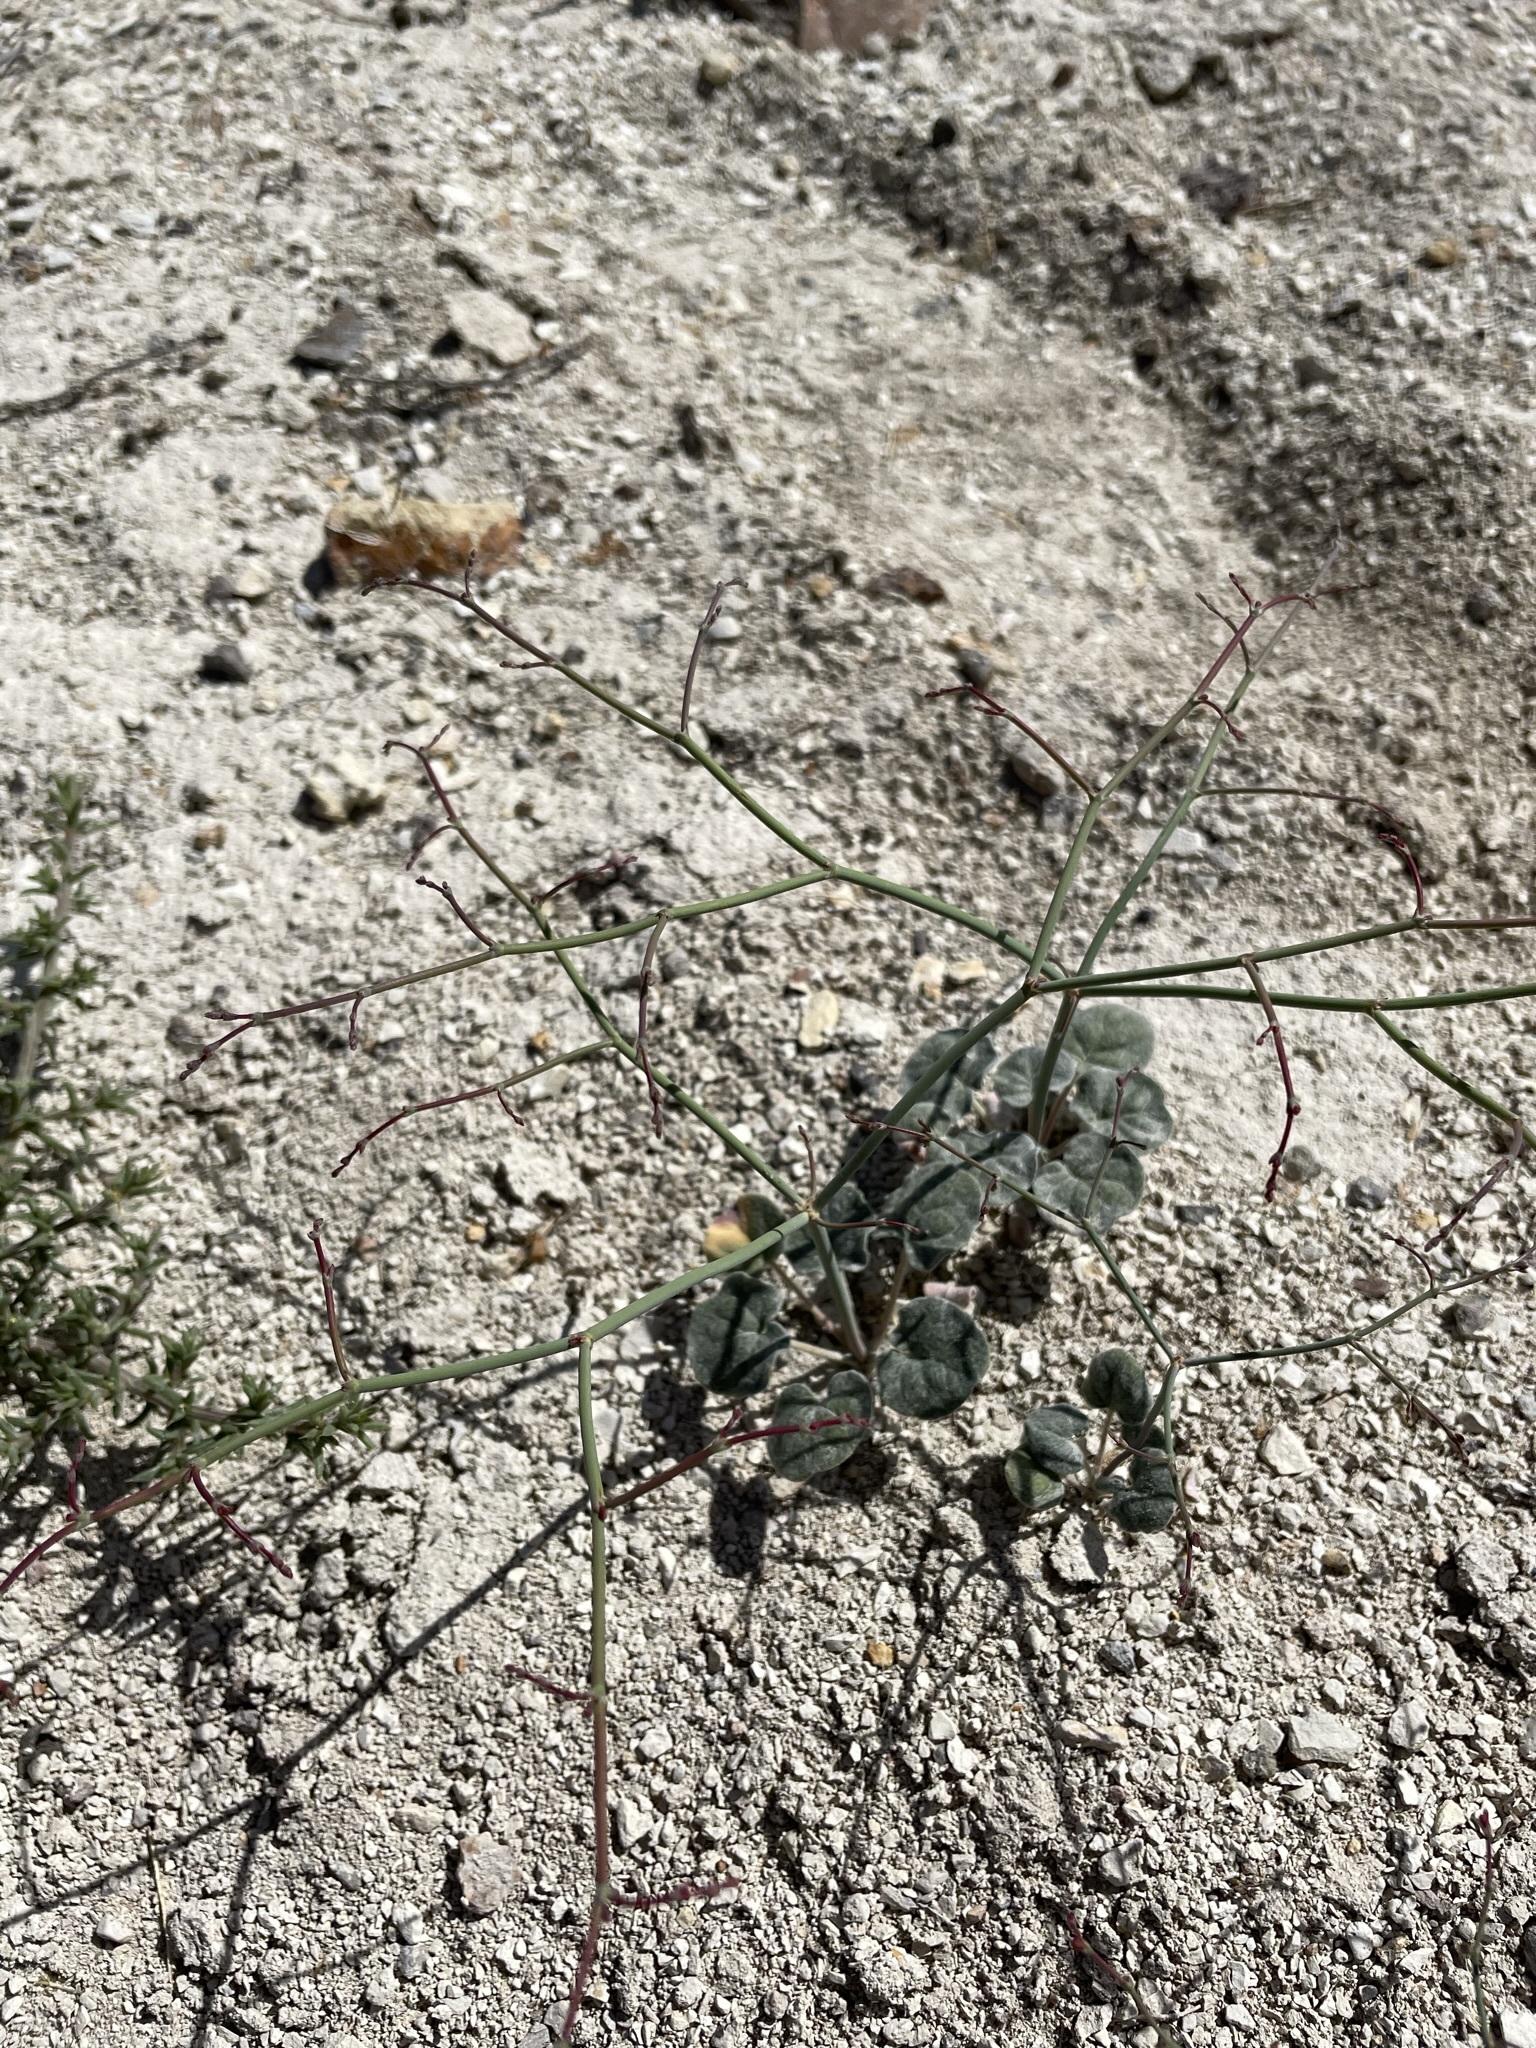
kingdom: Plantae
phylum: Tracheophyta
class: Magnoliopsida
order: Caryophyllales
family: Polygonaceae
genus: Eriogonum
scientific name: Eriogonum deflexum
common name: Skeleton-weed
